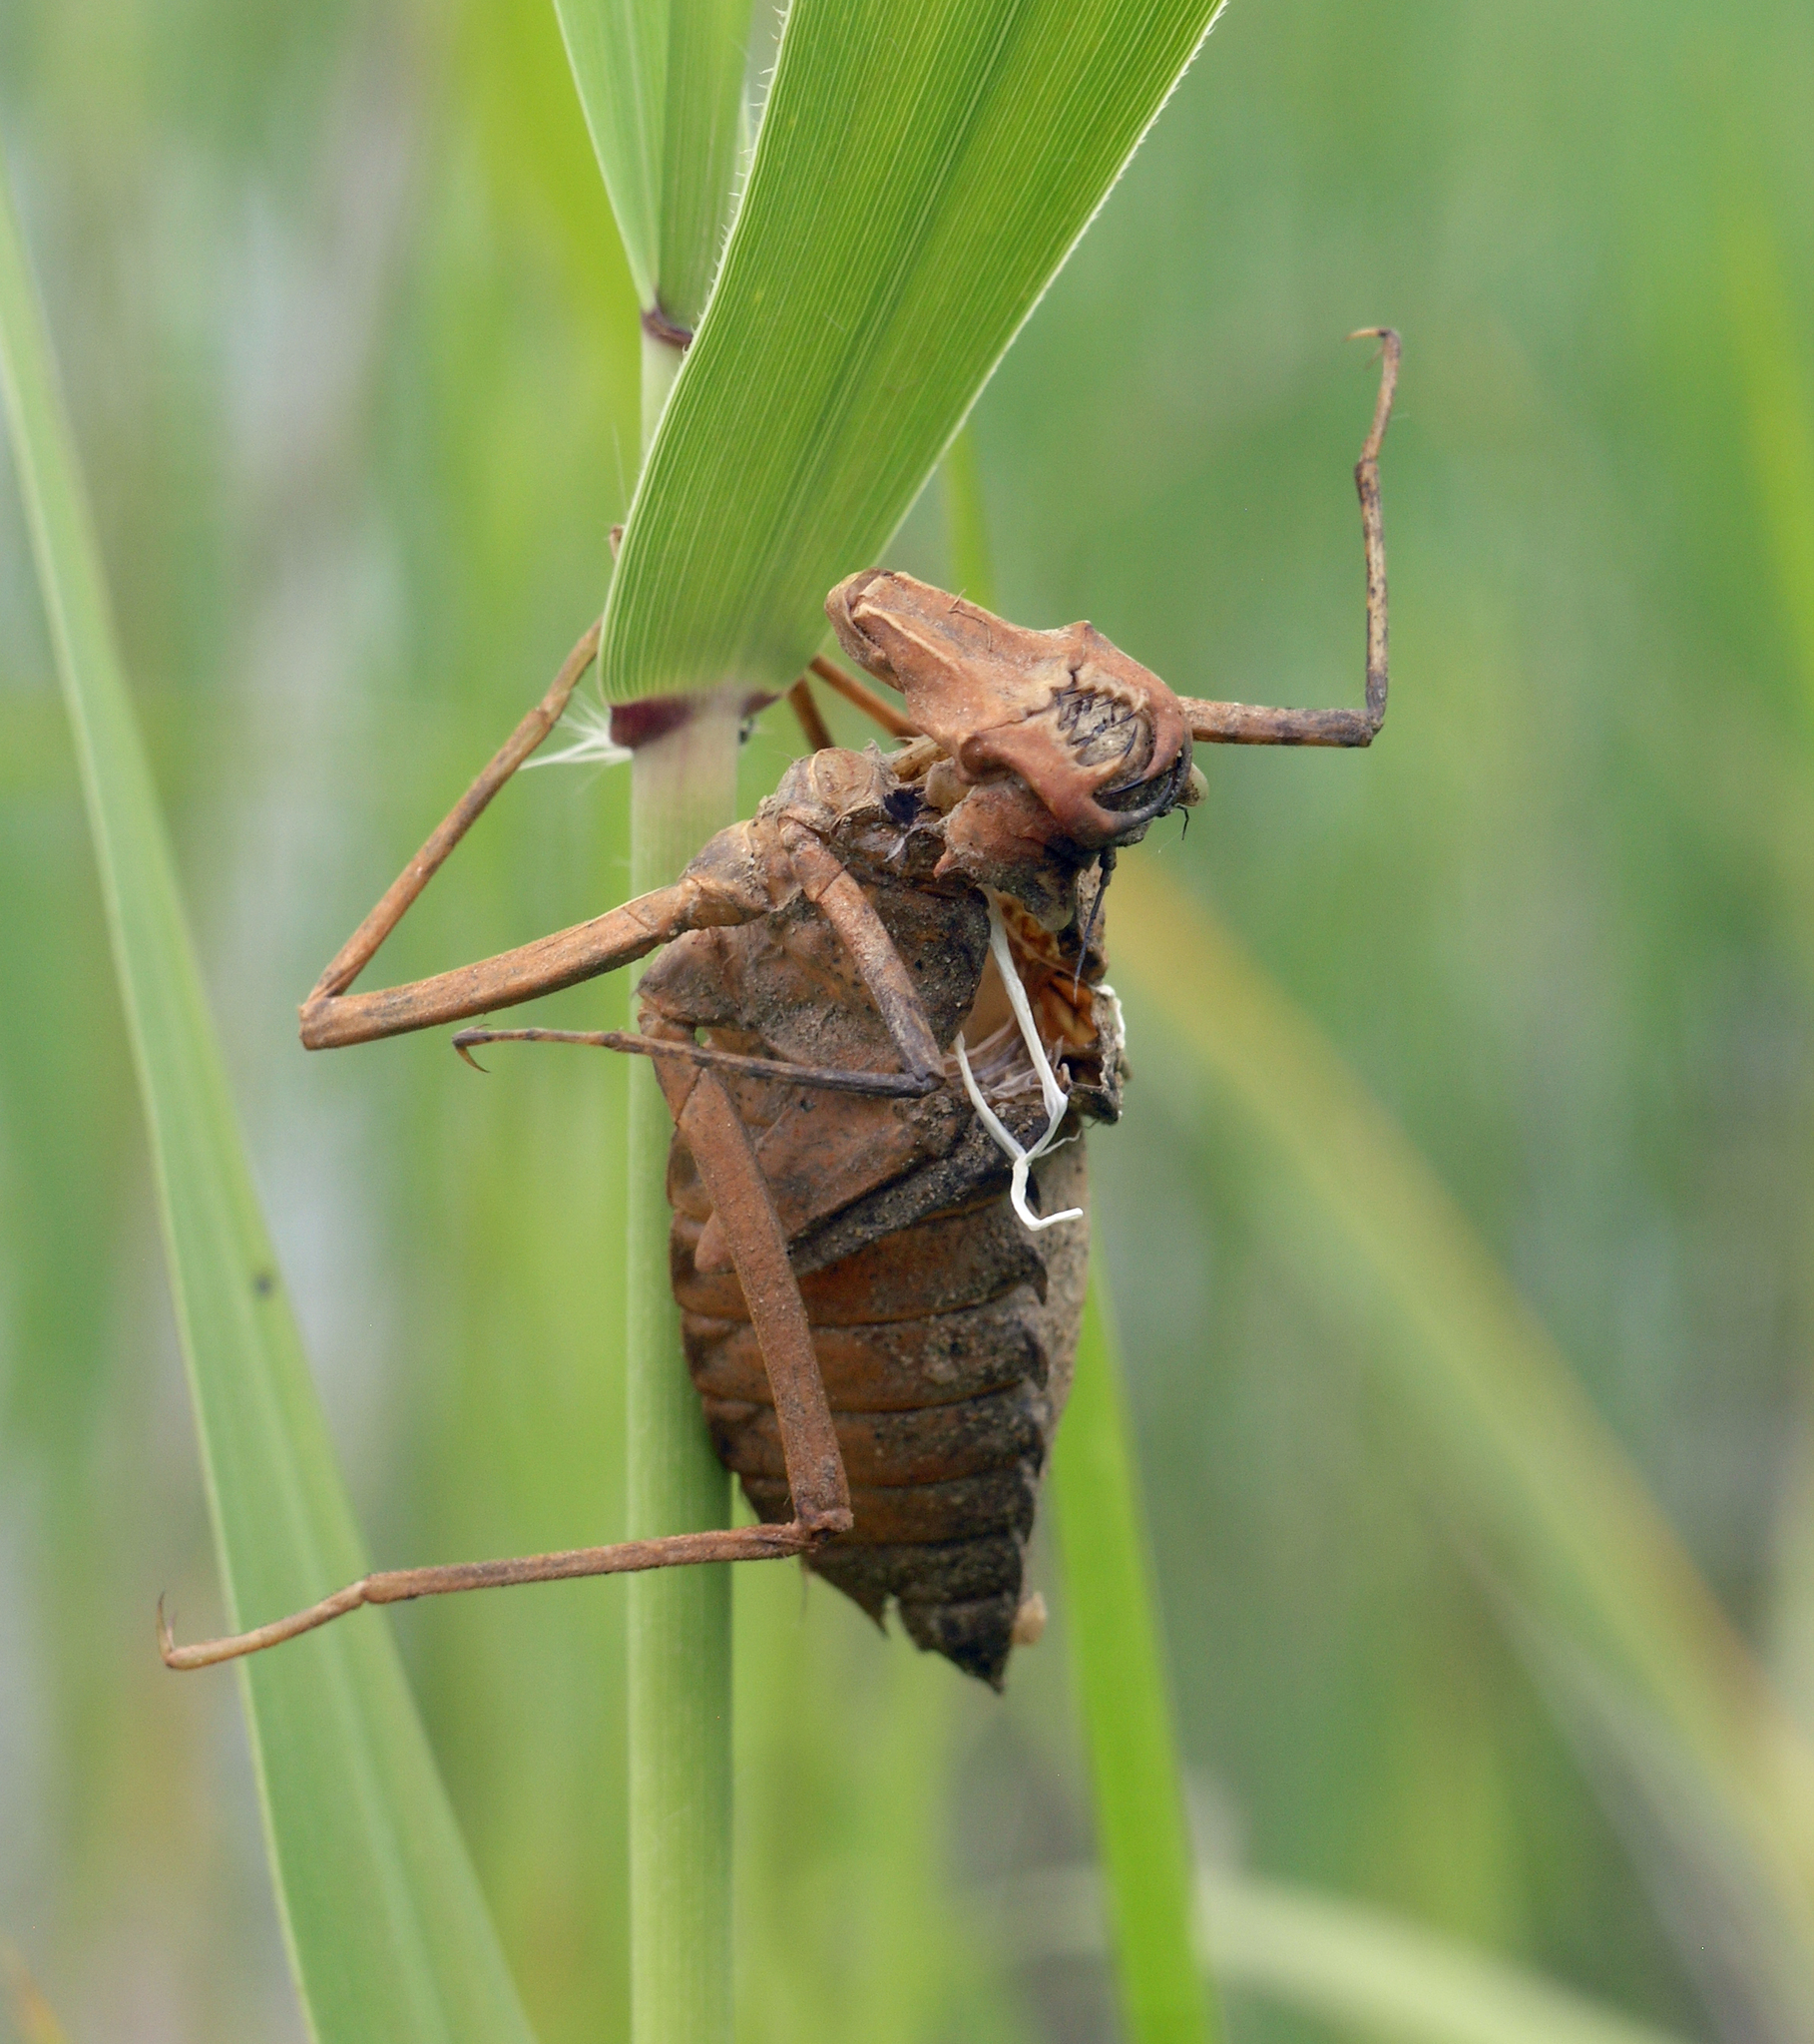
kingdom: Animalia
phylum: Arthropoda
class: Insecta
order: Odonata
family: Macromiidae
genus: Epophthalmia
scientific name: Epophthalmia elegans
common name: Regal pond cruiser
